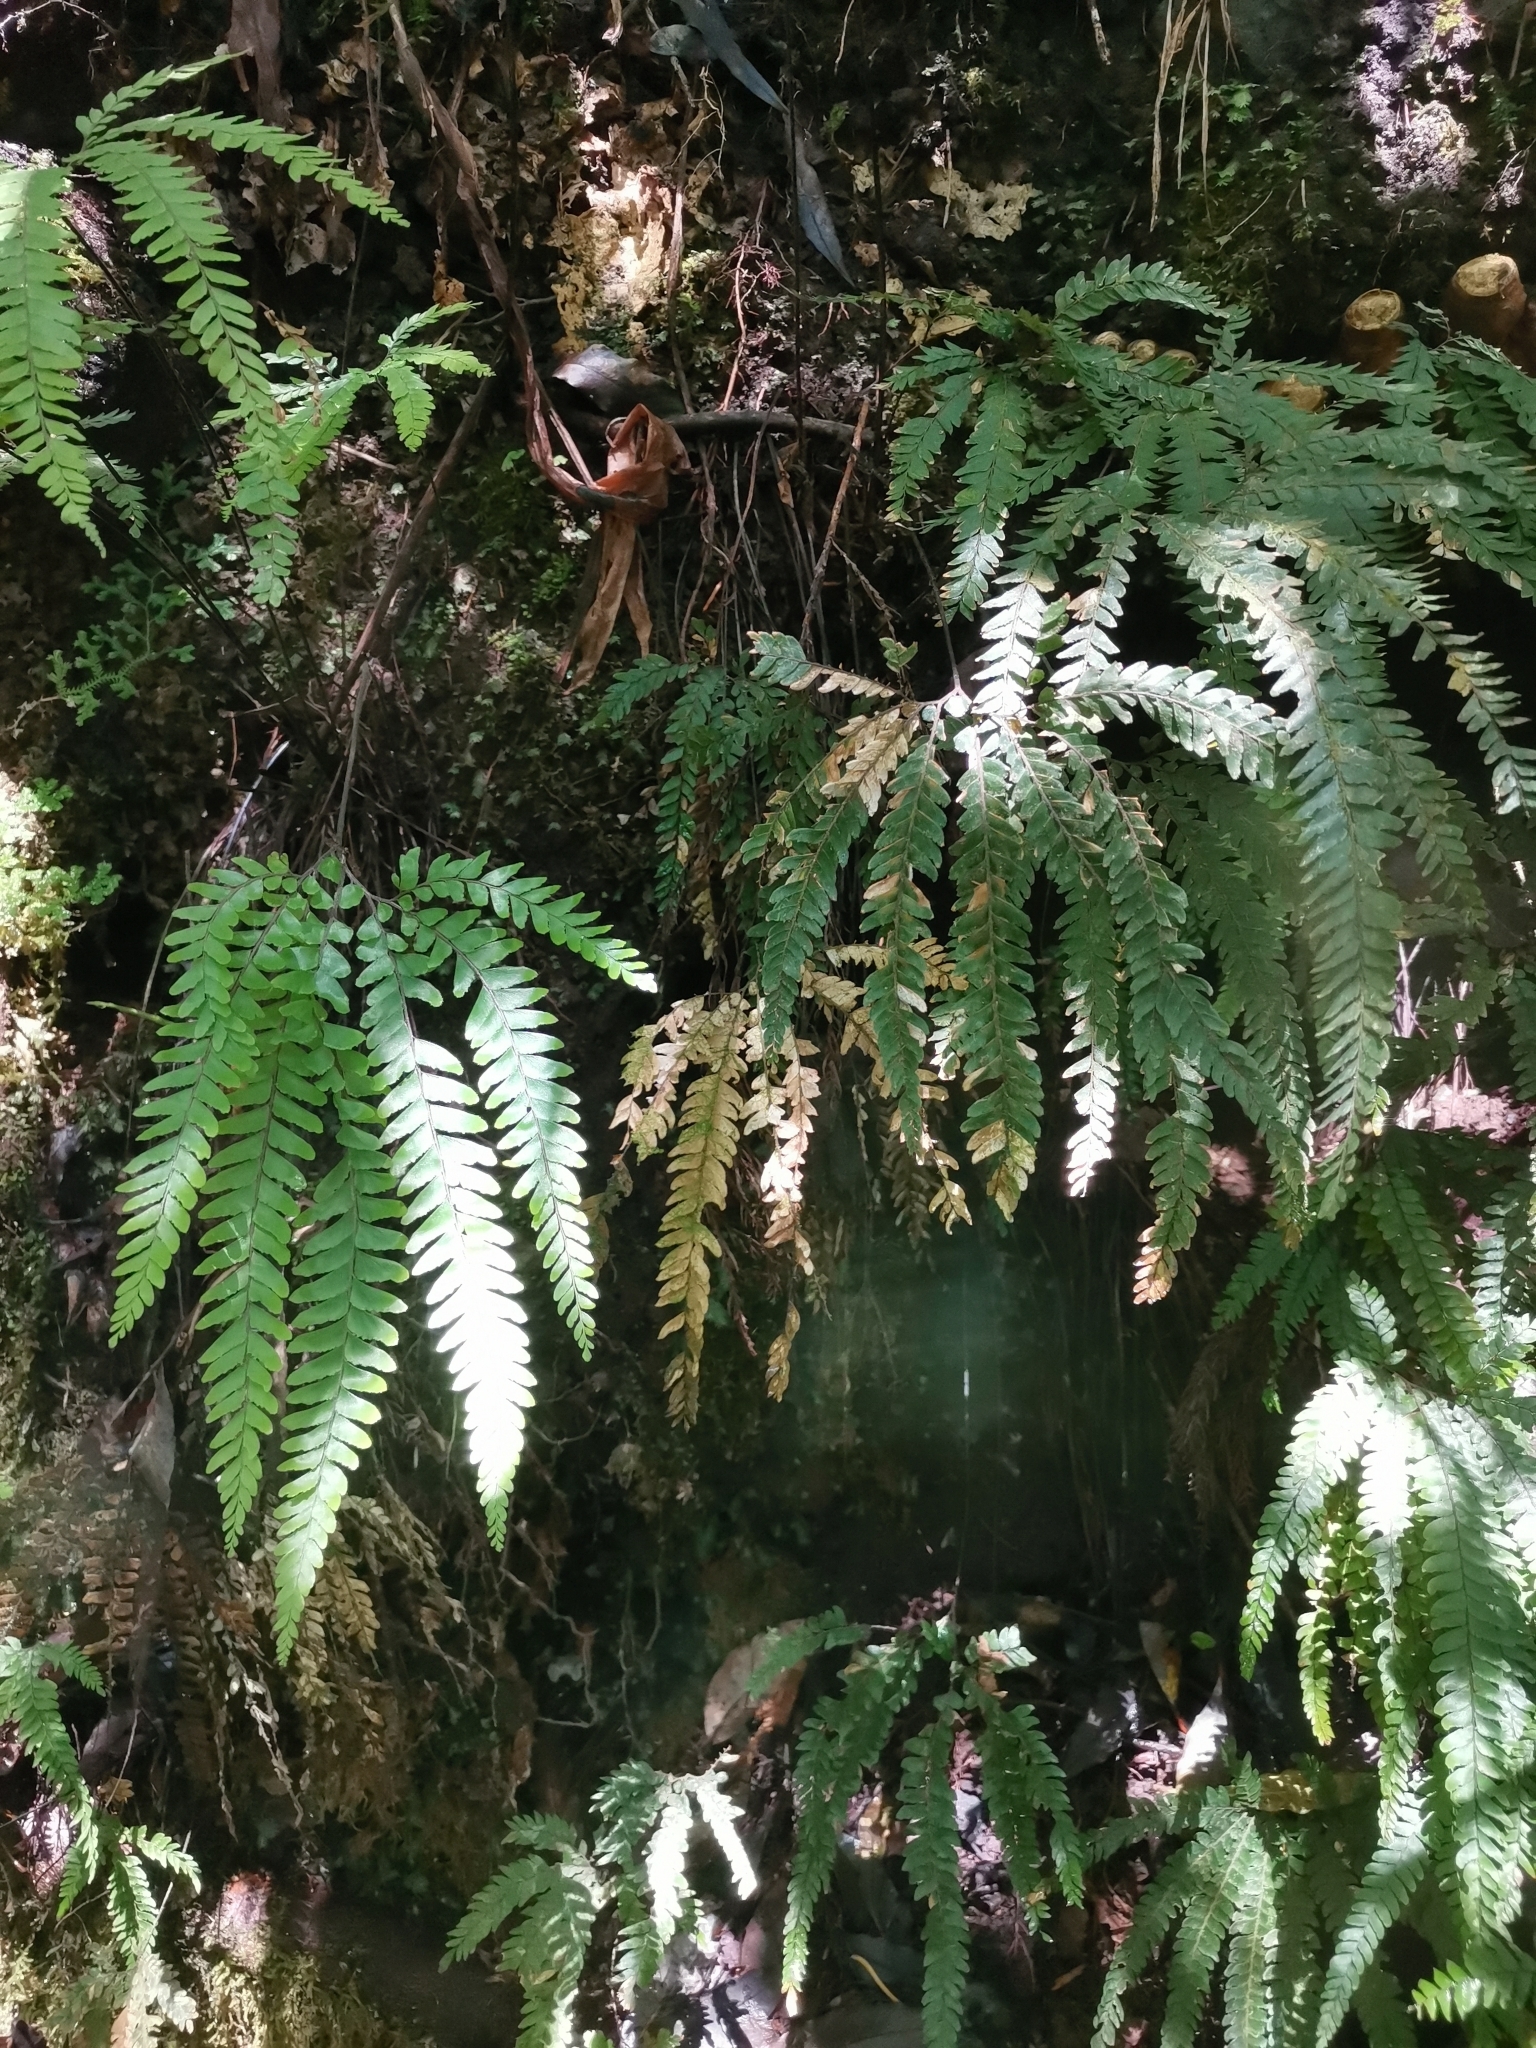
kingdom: Plantae
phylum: Tracheophyta
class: Polypodiopsida
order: Polypodiales
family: Pteridaceae
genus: Adiantum
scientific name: Adiantum hispidulum
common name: Rough maidenhair
